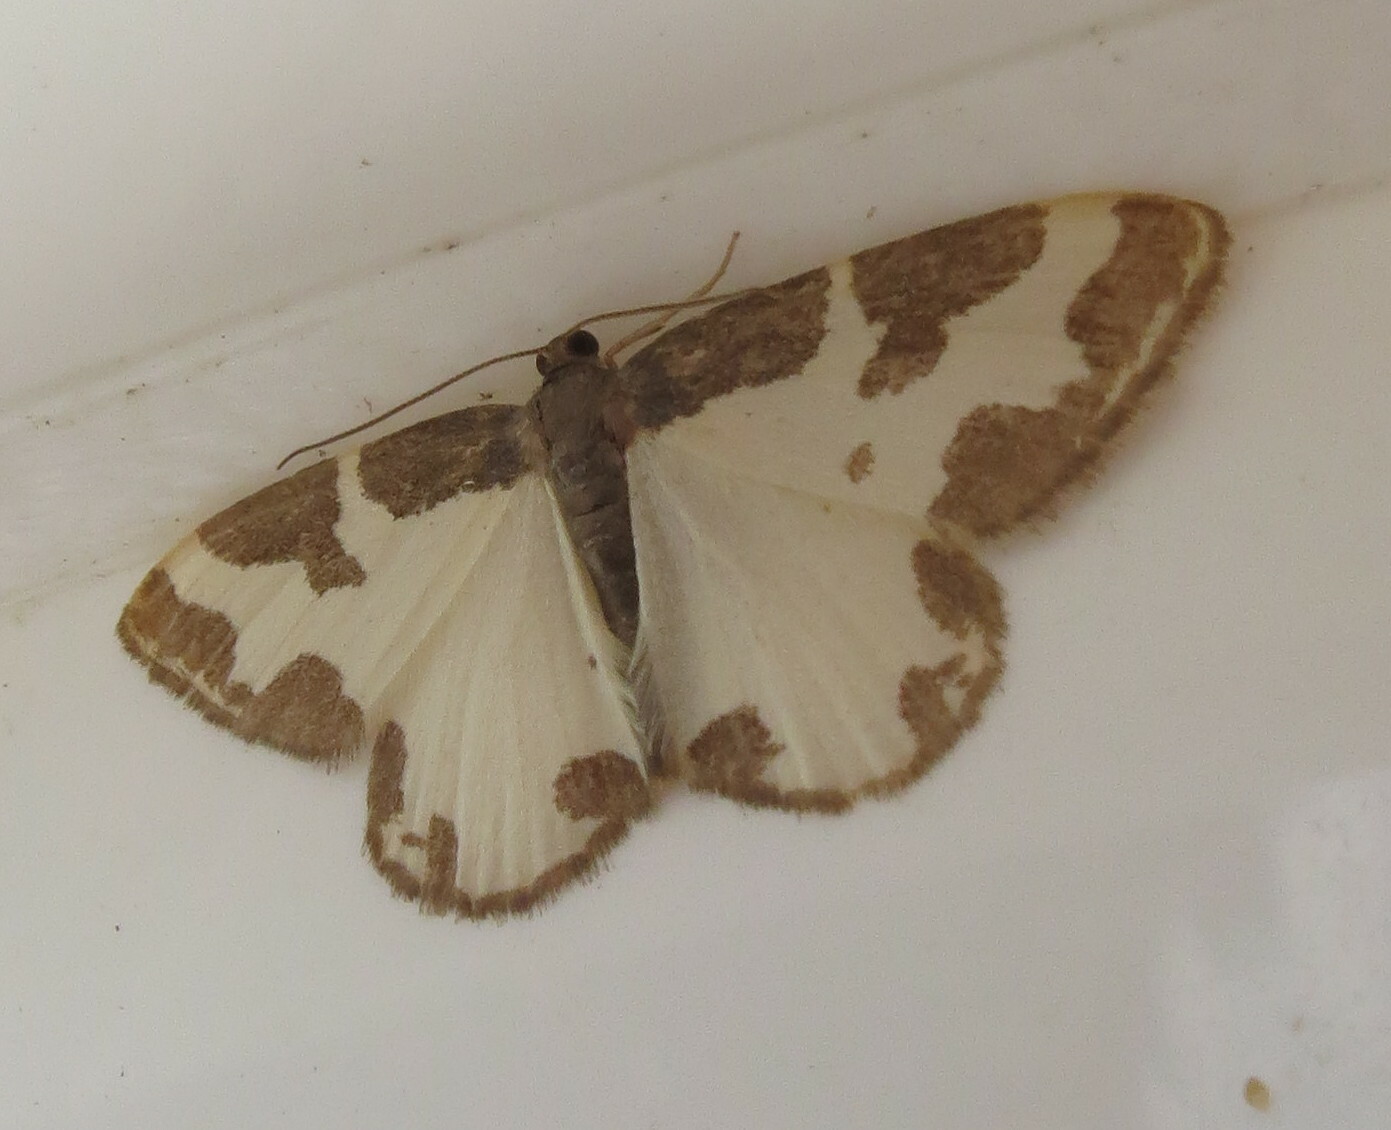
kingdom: Animalia
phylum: Arthropoda
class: Insecta
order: Lepidoptera
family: Geometridae
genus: Lomaspilis
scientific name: Lomaspilis marginata
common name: Clouded border
